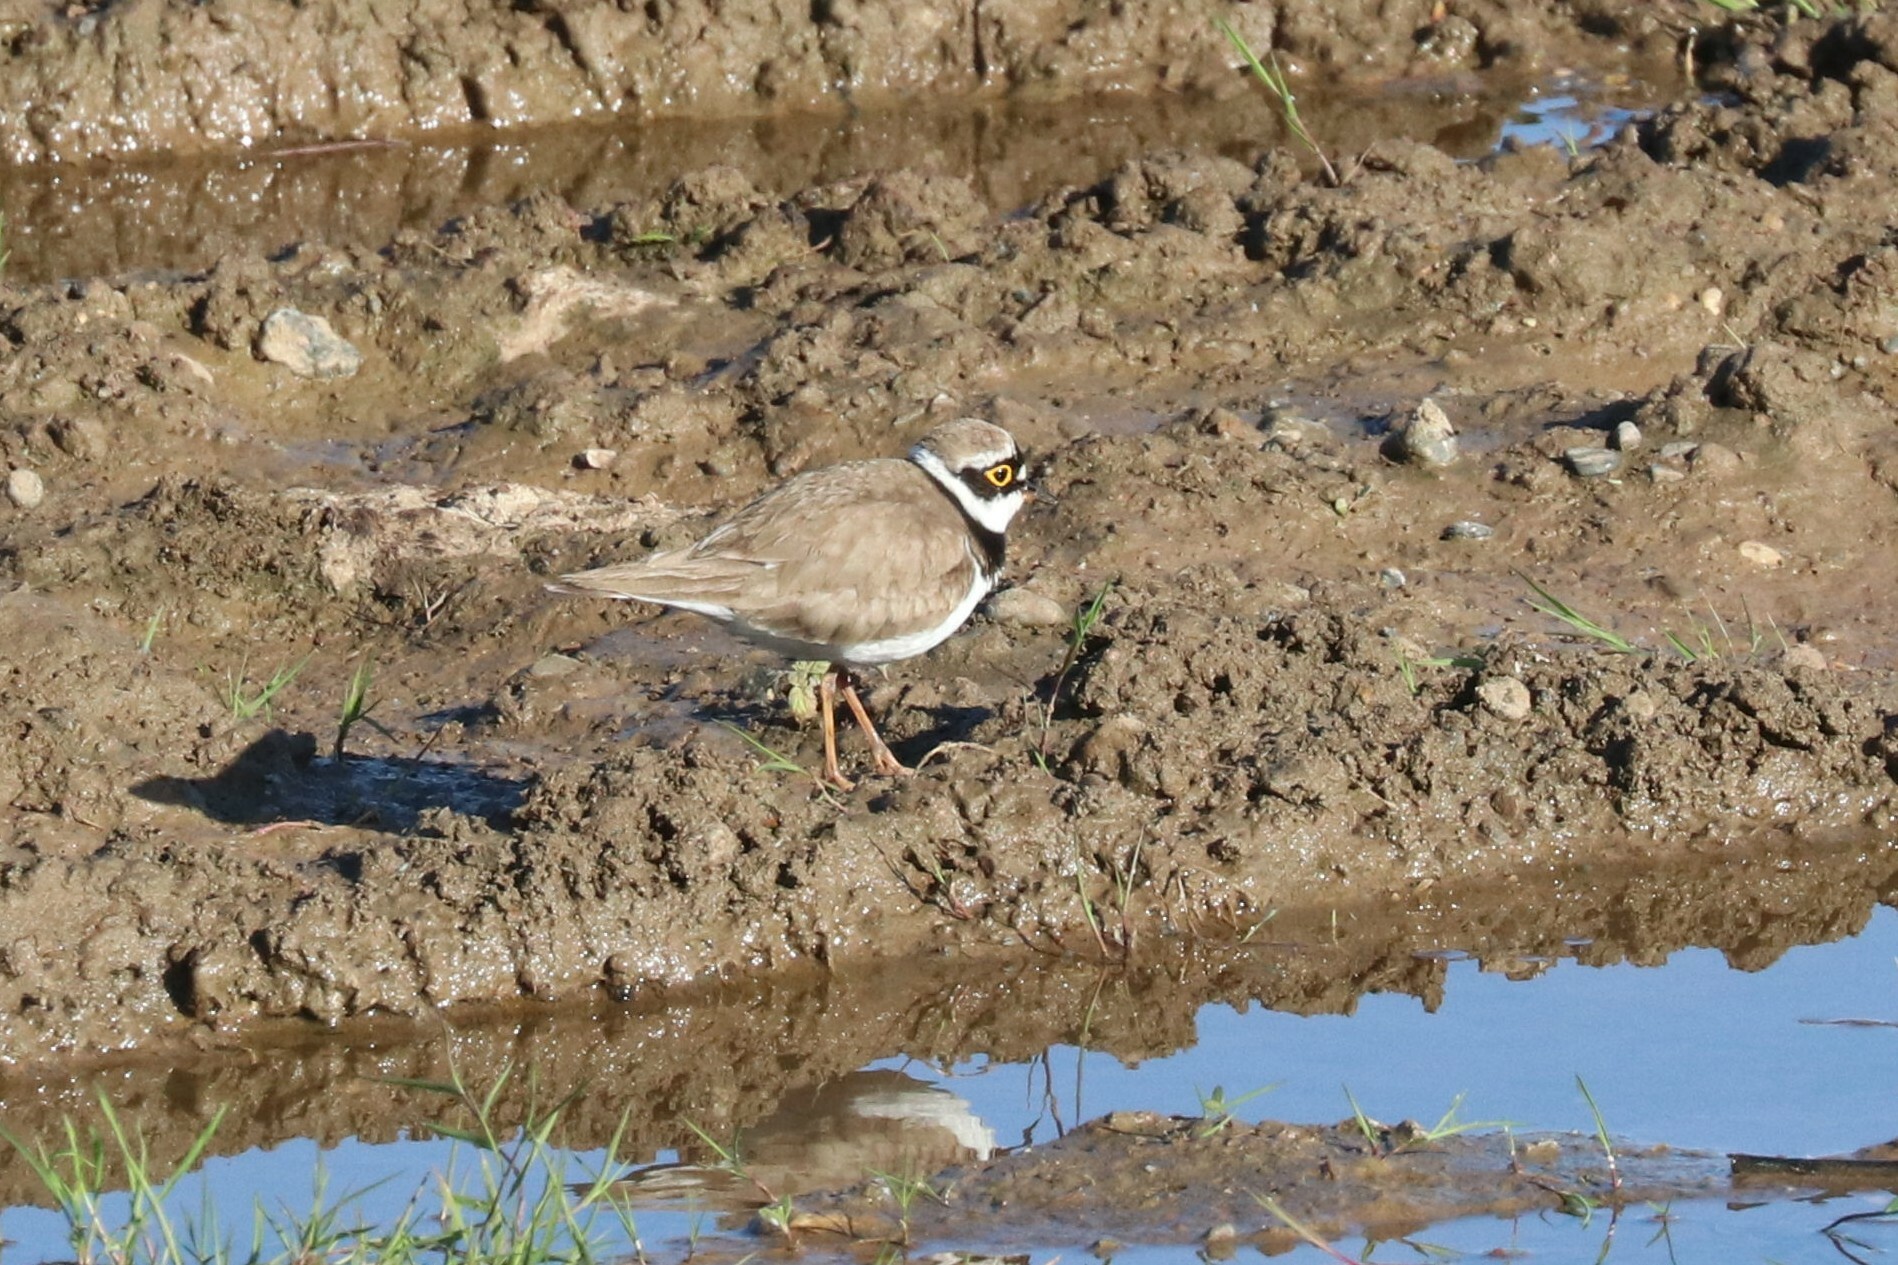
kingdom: Animalia
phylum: Chordata
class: Aves
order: Charadriiformes
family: Charadriidae
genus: Charadrius
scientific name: Charadrius dubius
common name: Little ringed plover
